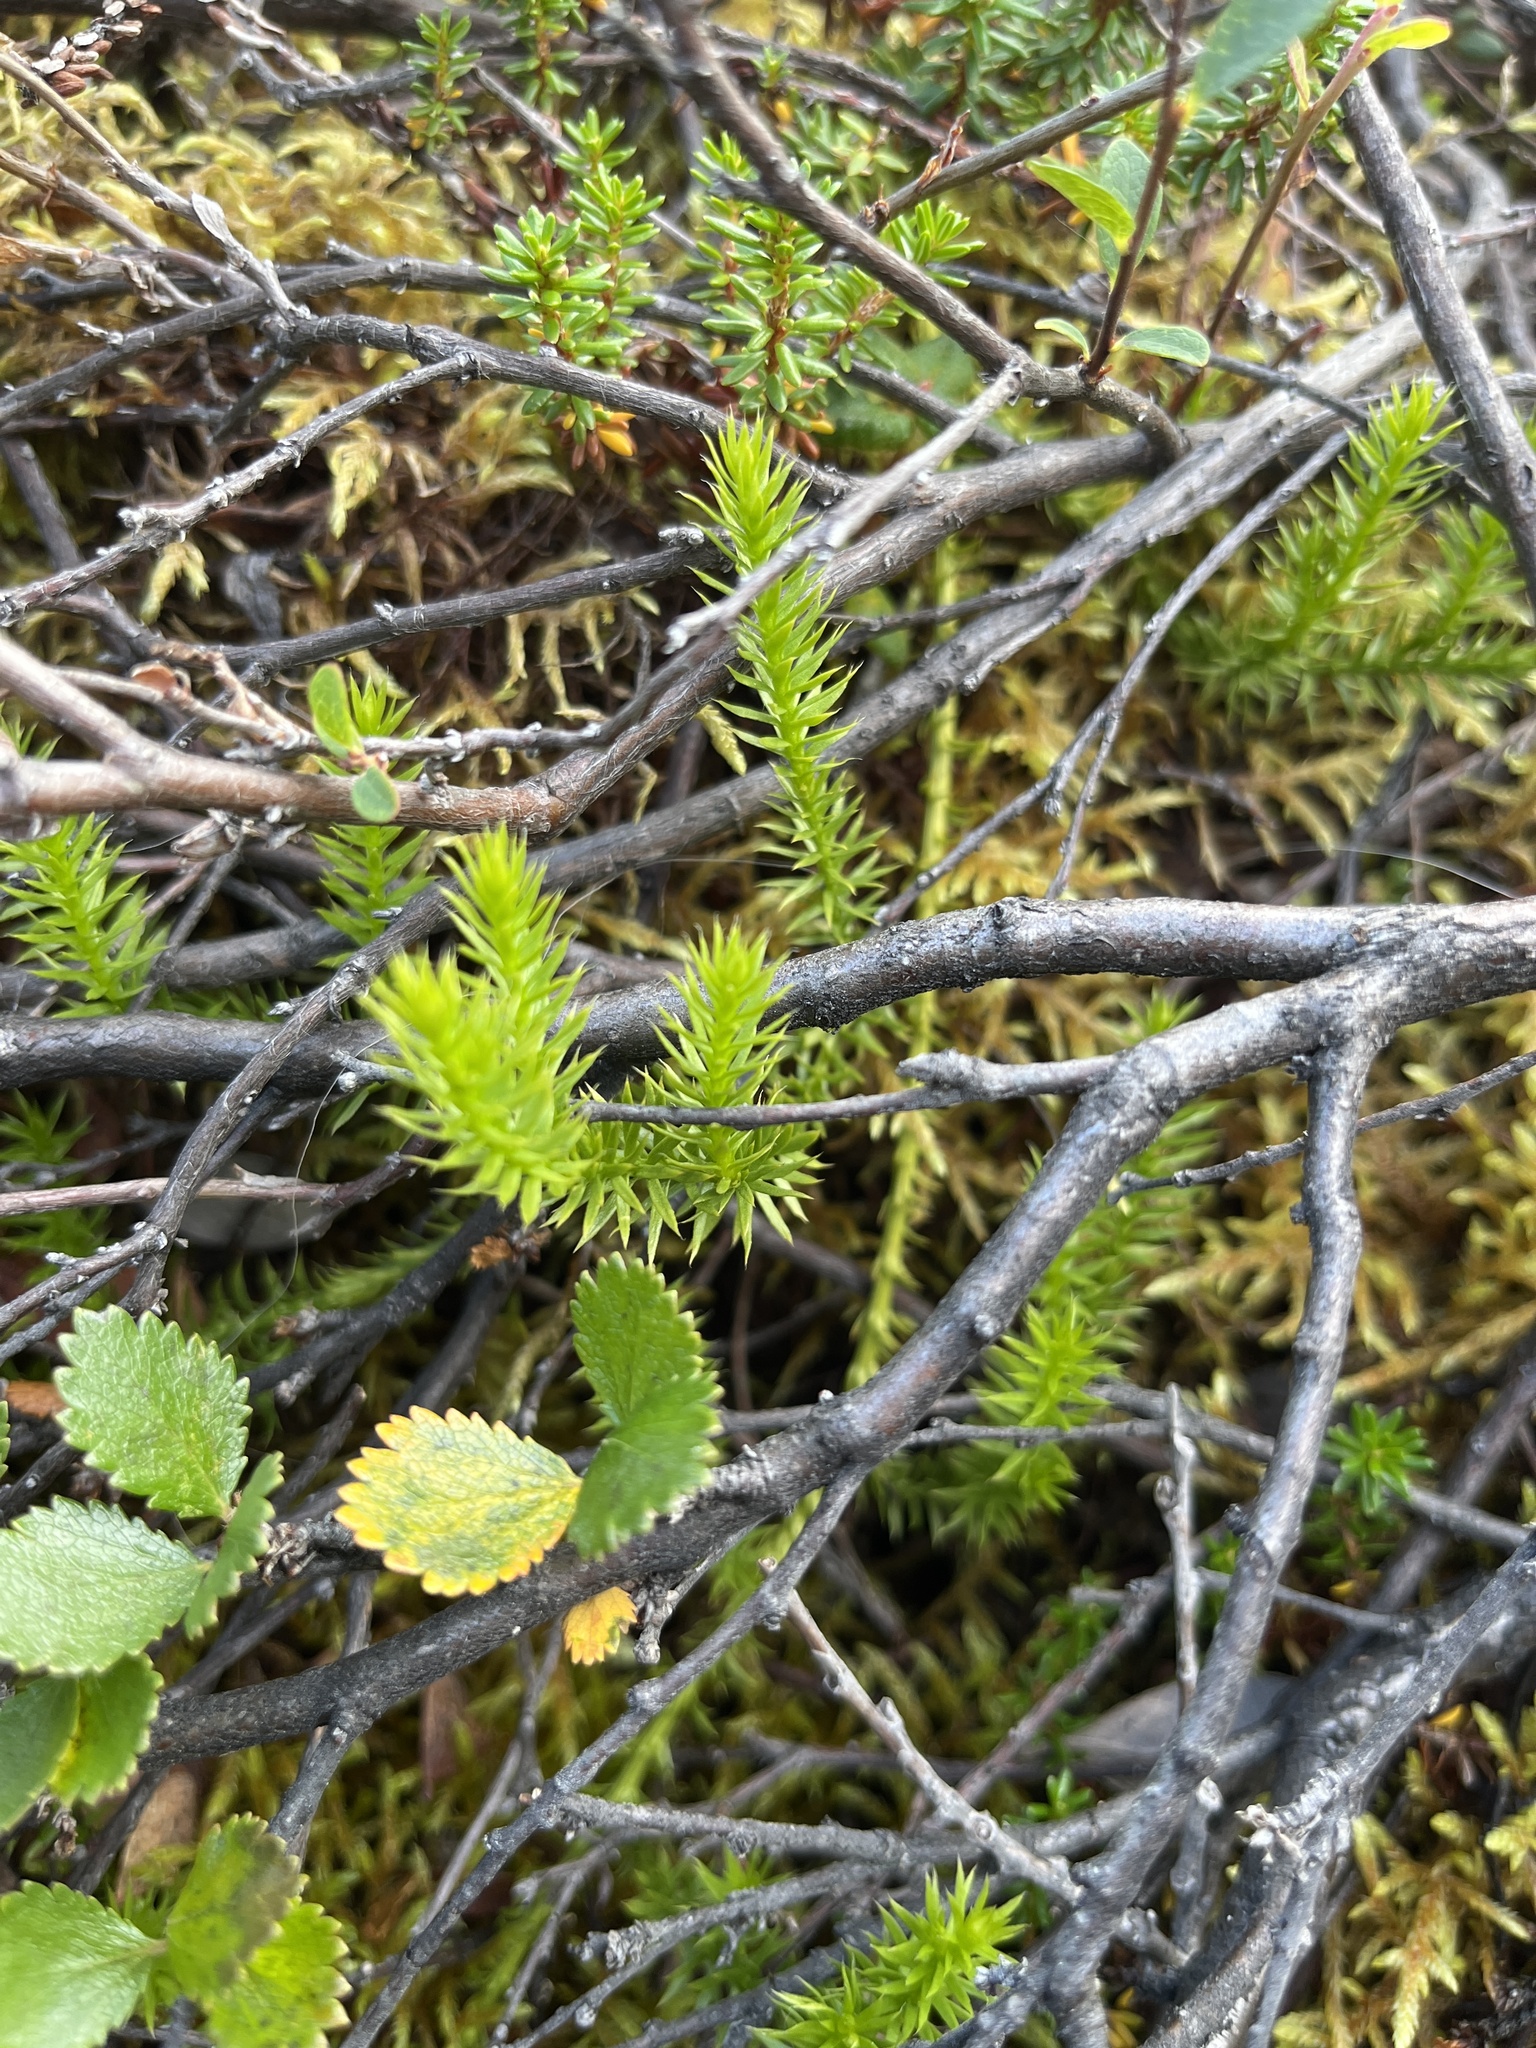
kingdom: Plantae
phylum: Tracheophyta
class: Lycopodiopsida
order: Lycopodiales
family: Lycopodiaceae
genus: Spinulum
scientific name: Spinulum annotinum
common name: Interrupted club-moss
